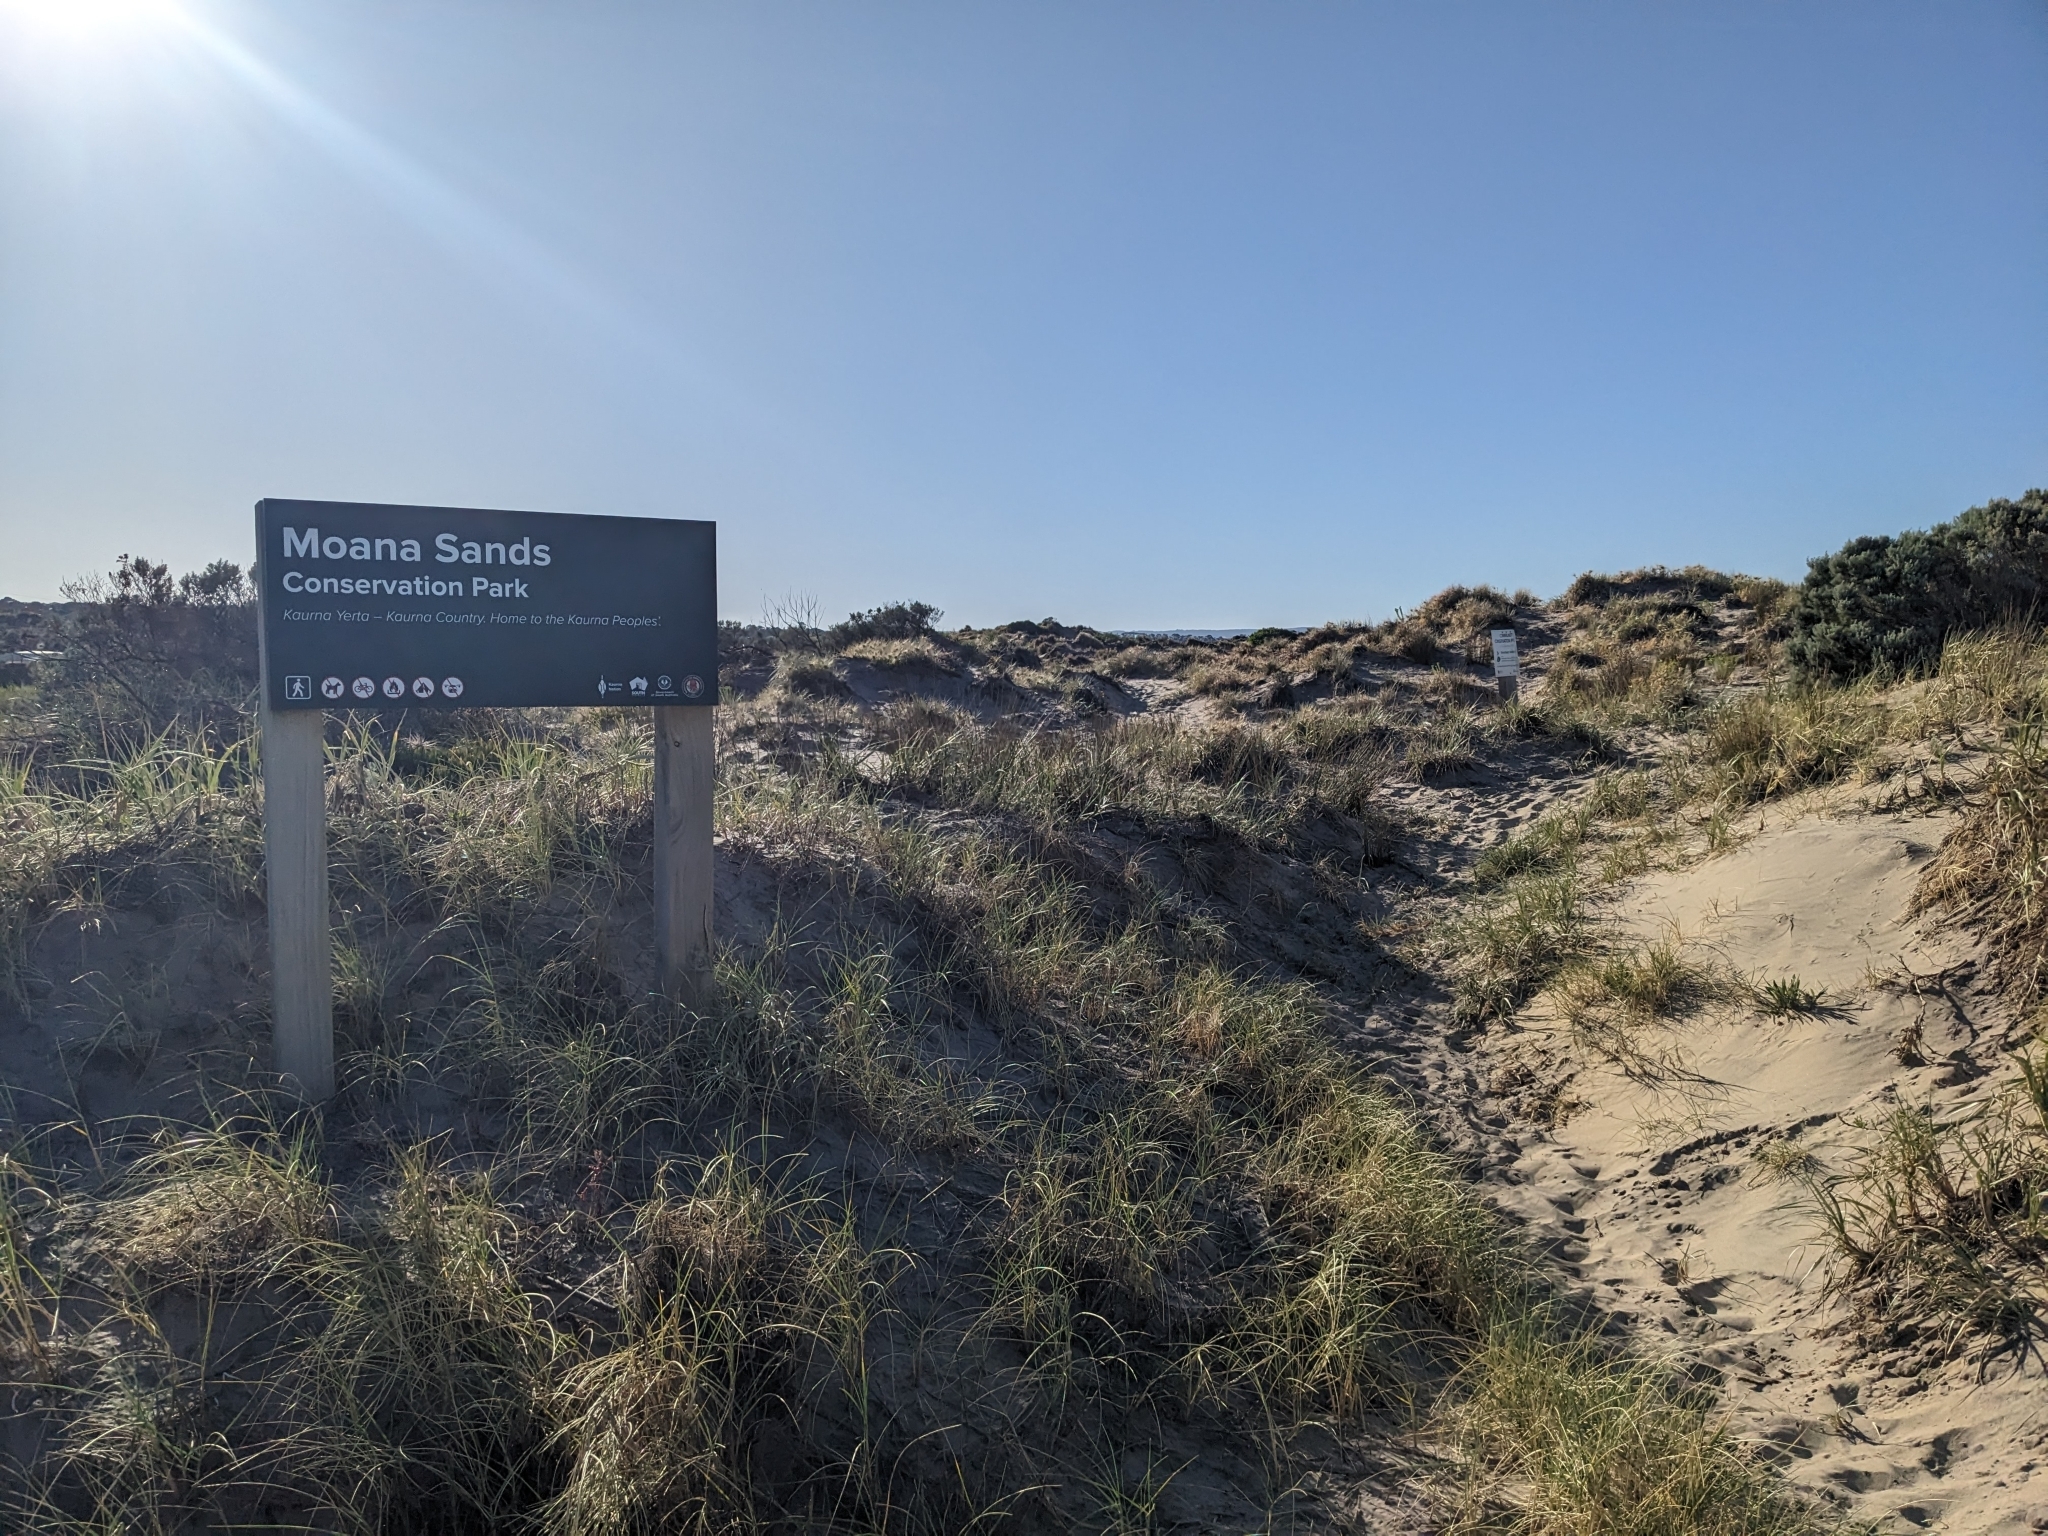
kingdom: Plantae
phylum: Tracheophyta
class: Liliopsida
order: Poales
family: Poaceae
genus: Spinifex
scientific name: Spinifex hirsutus
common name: Hairy spinifex
